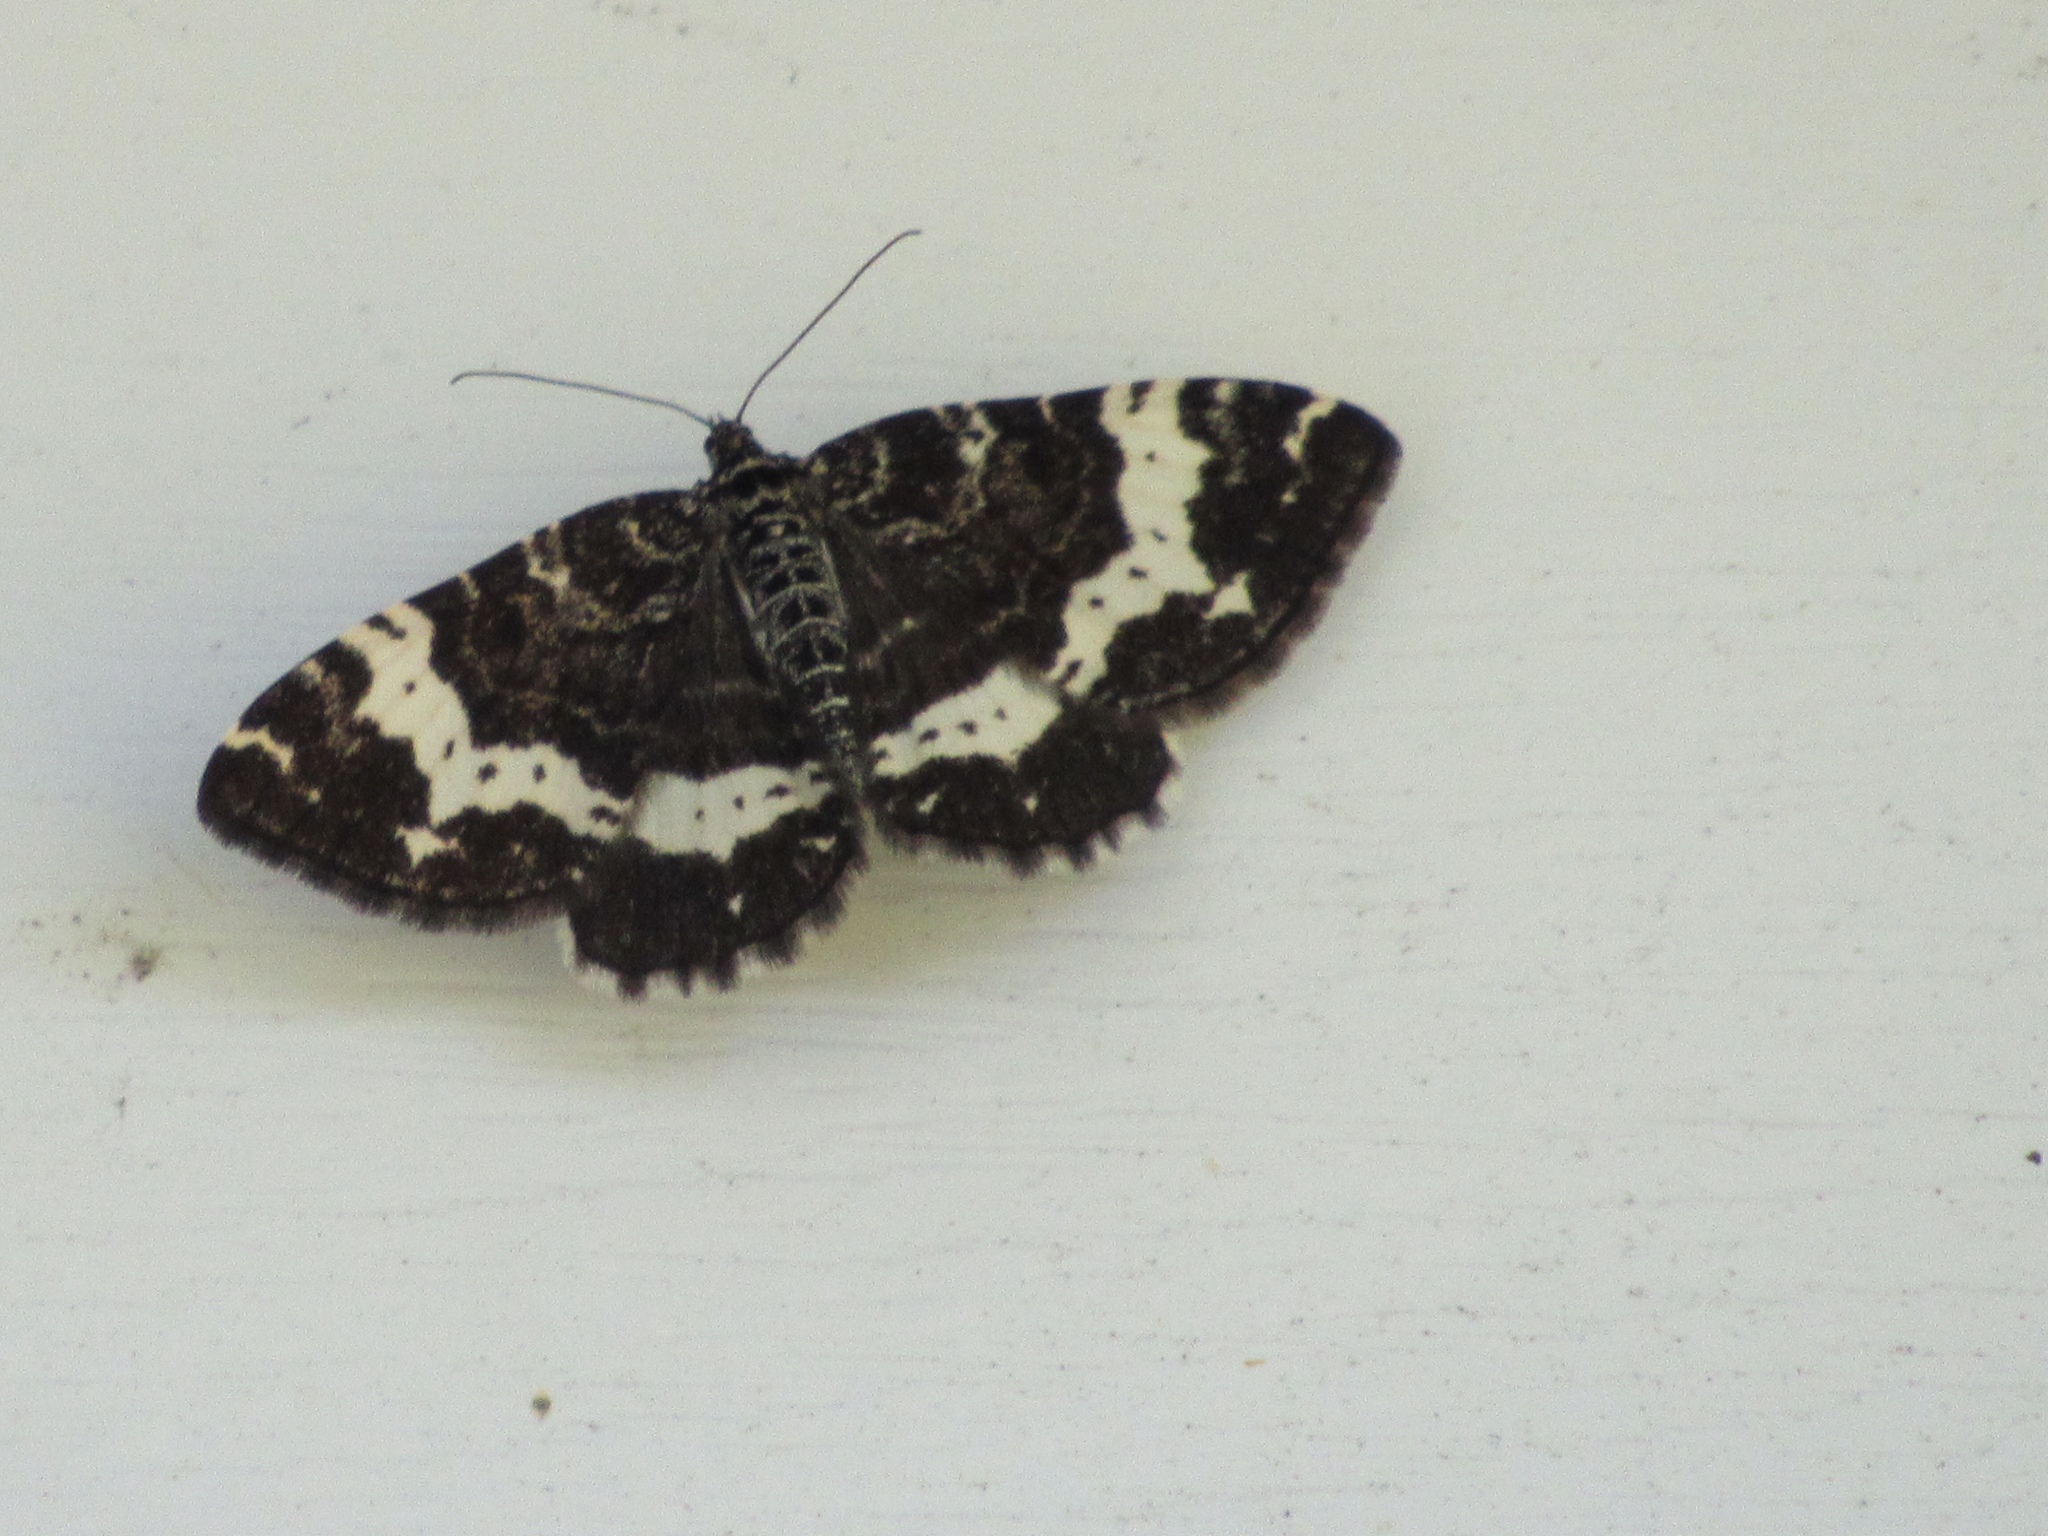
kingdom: Animalia
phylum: Arthropoda
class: Insecta
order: Lepidoptera
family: Geometridae
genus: Rheumaptera
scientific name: Rheumaptera
